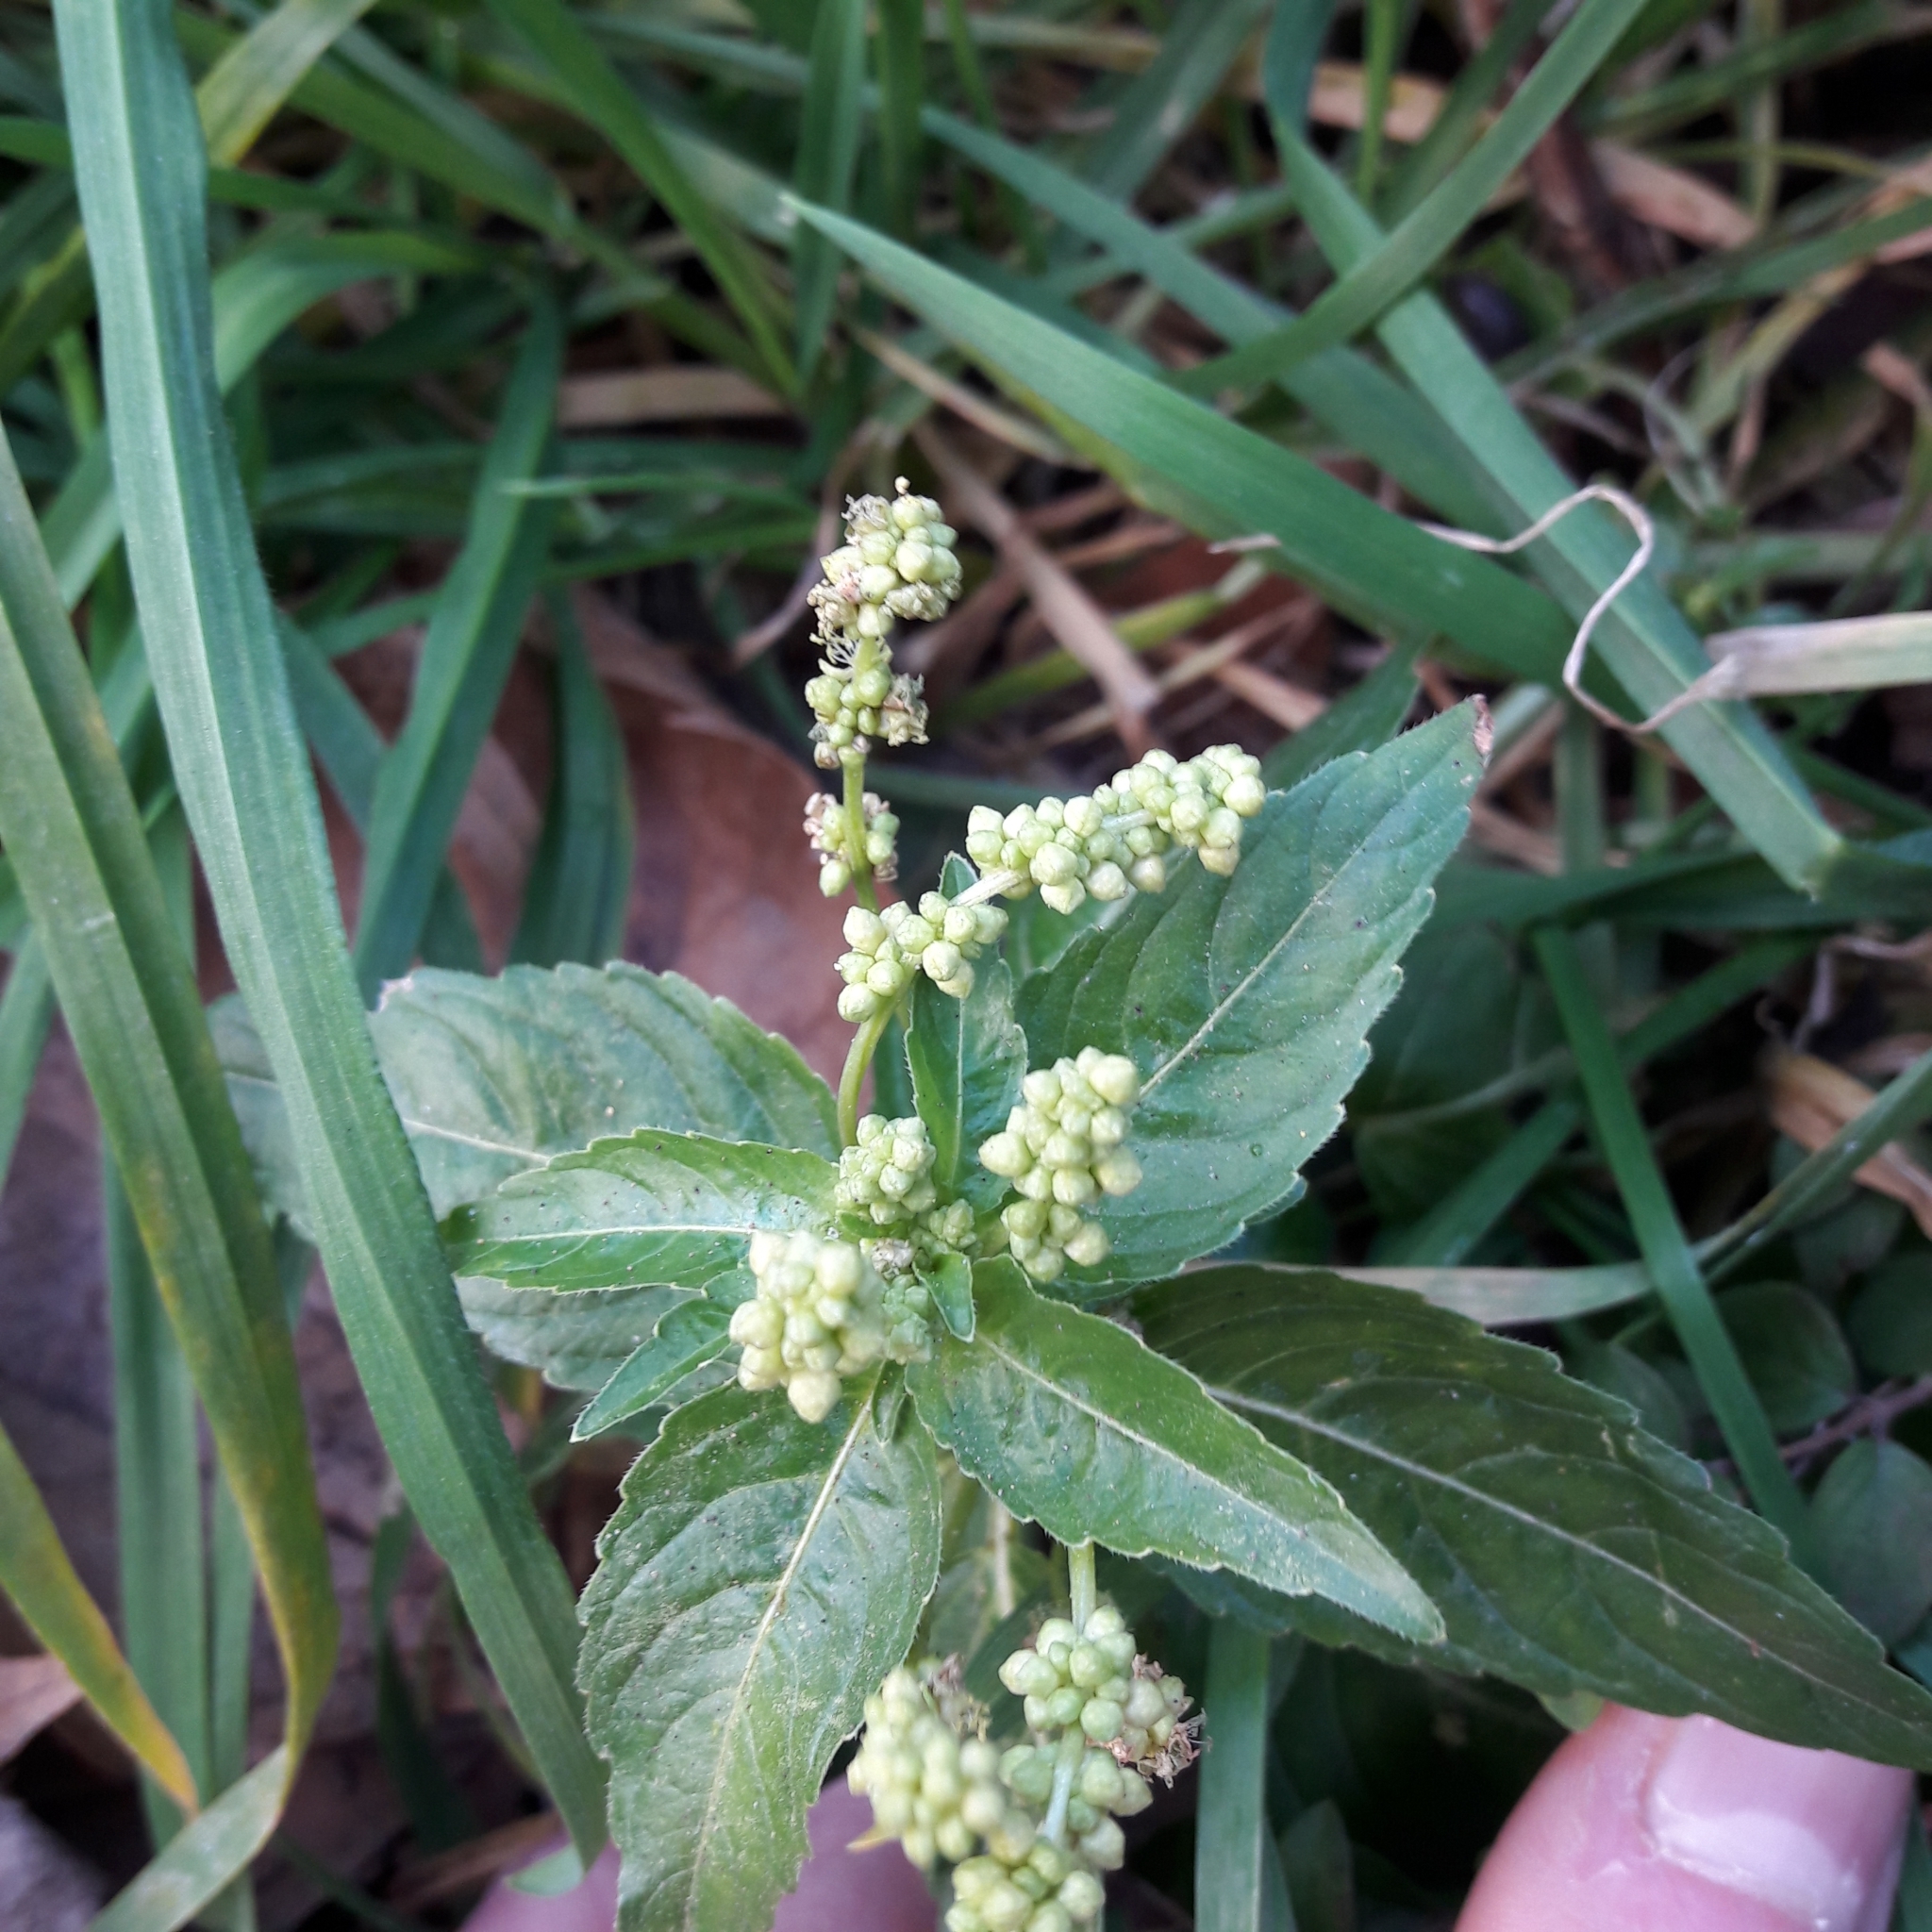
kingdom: Plantae
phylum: Tracheophyta
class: Magnoliopsida
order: Malpighiales
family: Euphorbiaceae
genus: Mercurialis
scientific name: Mercurialis annua
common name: Annual mercury
